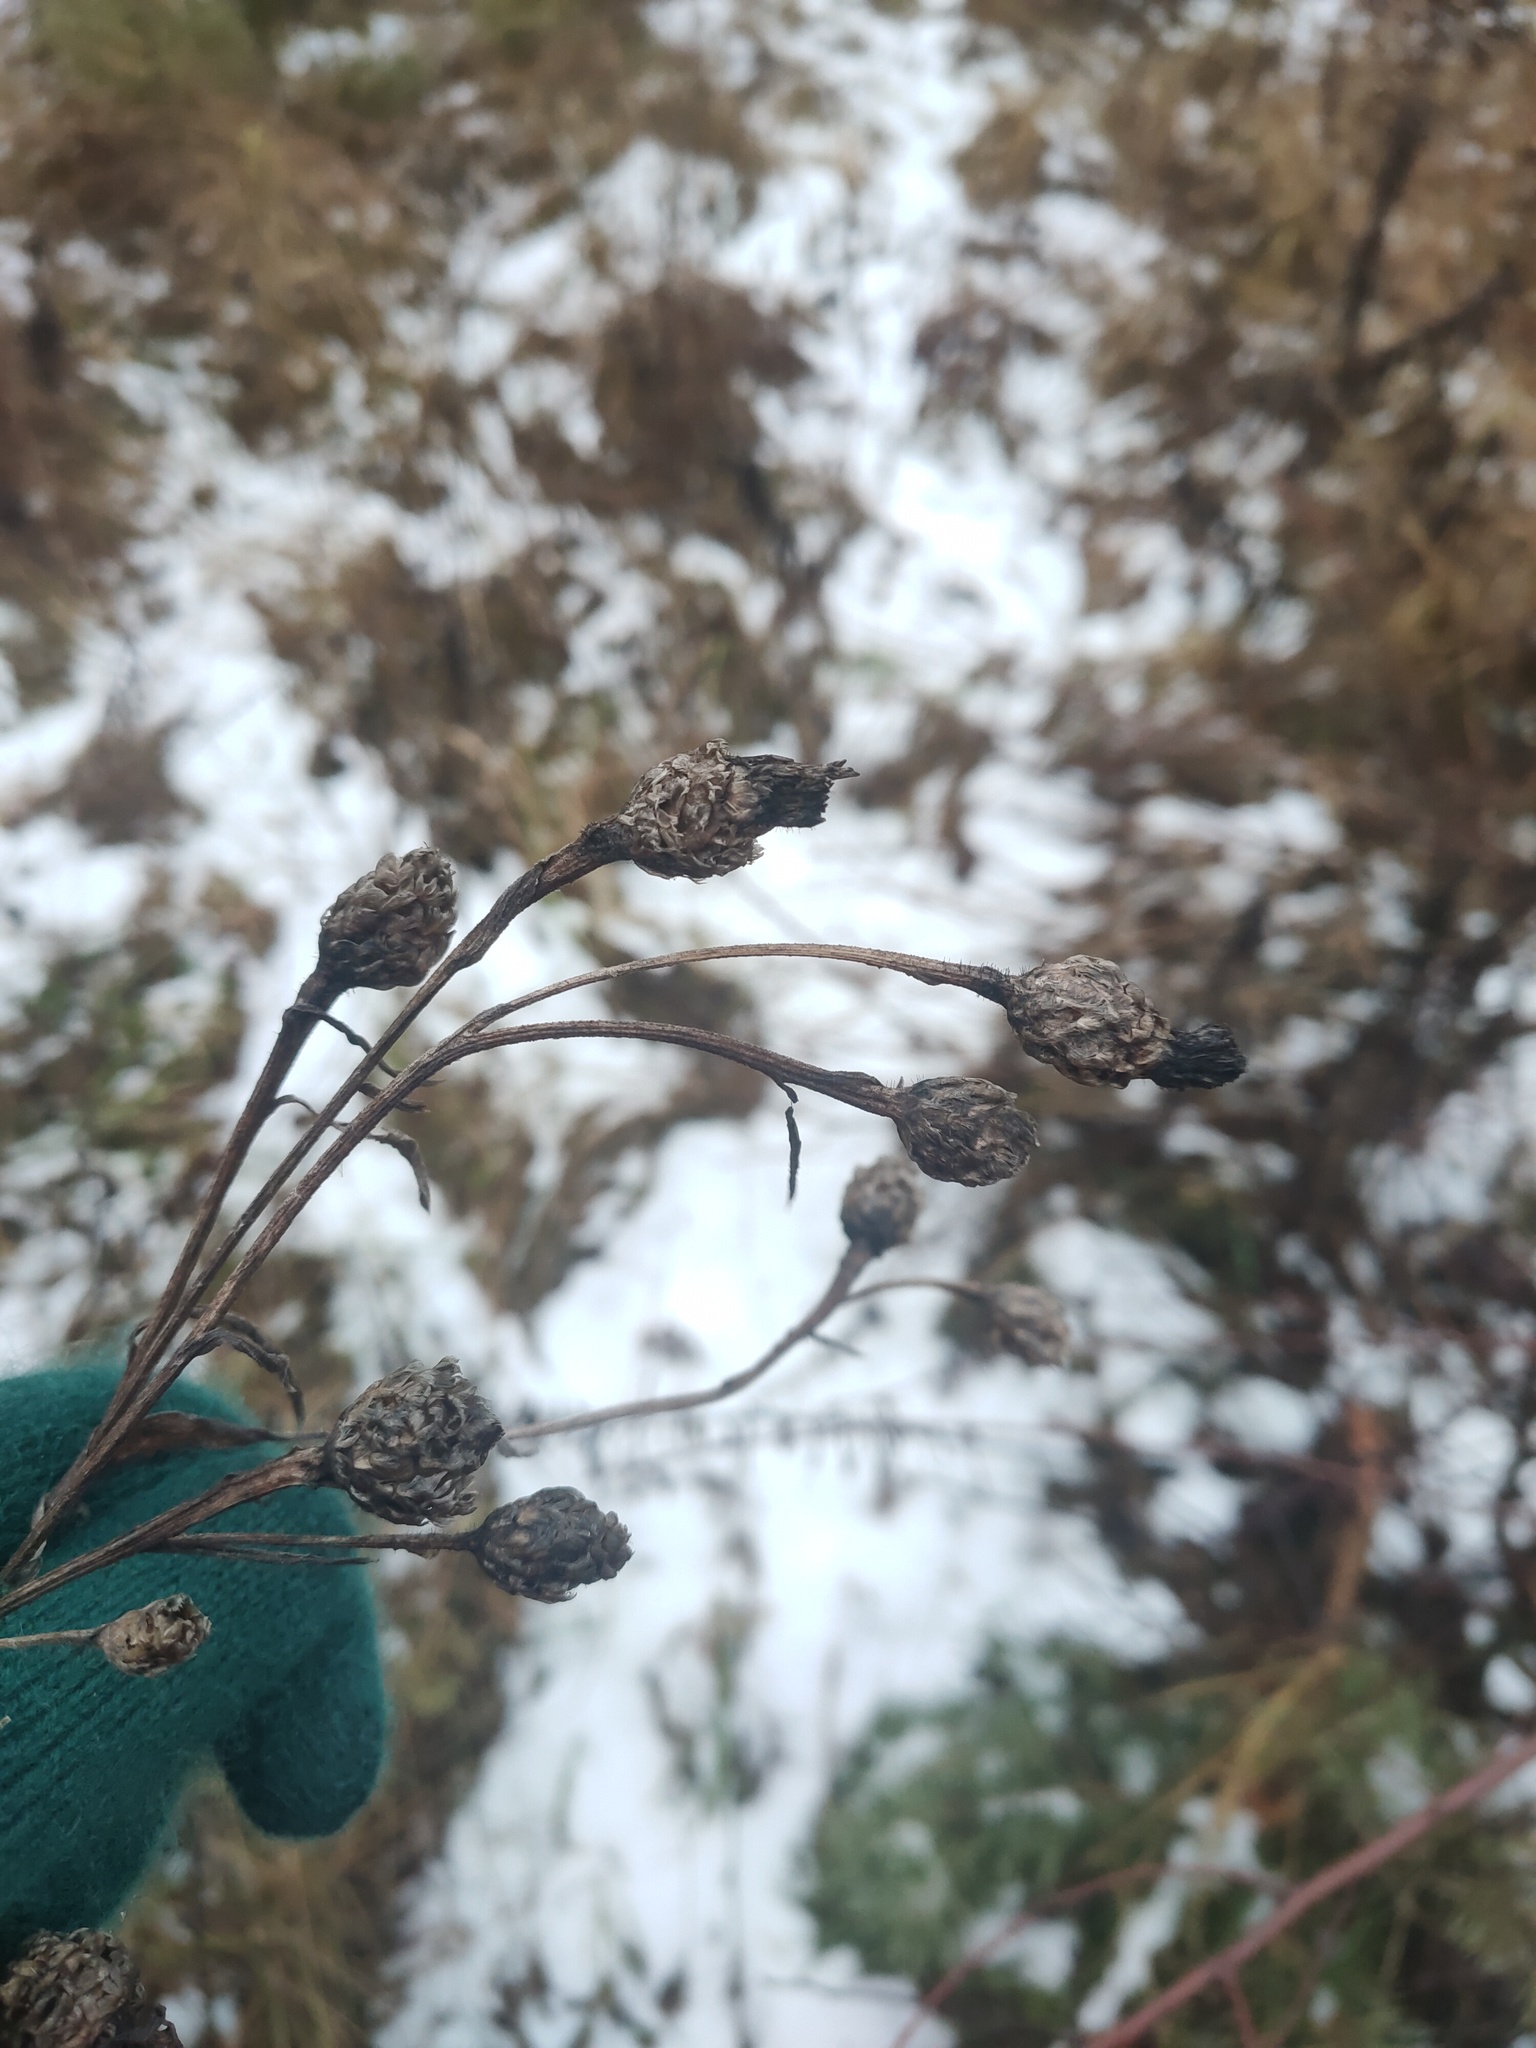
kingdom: Plantae
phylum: Tracheophyta
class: Magnoliopsida
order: Asterales
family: Asteraceae
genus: Centaurea
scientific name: Centaurea jacea
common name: Brown knapweed
